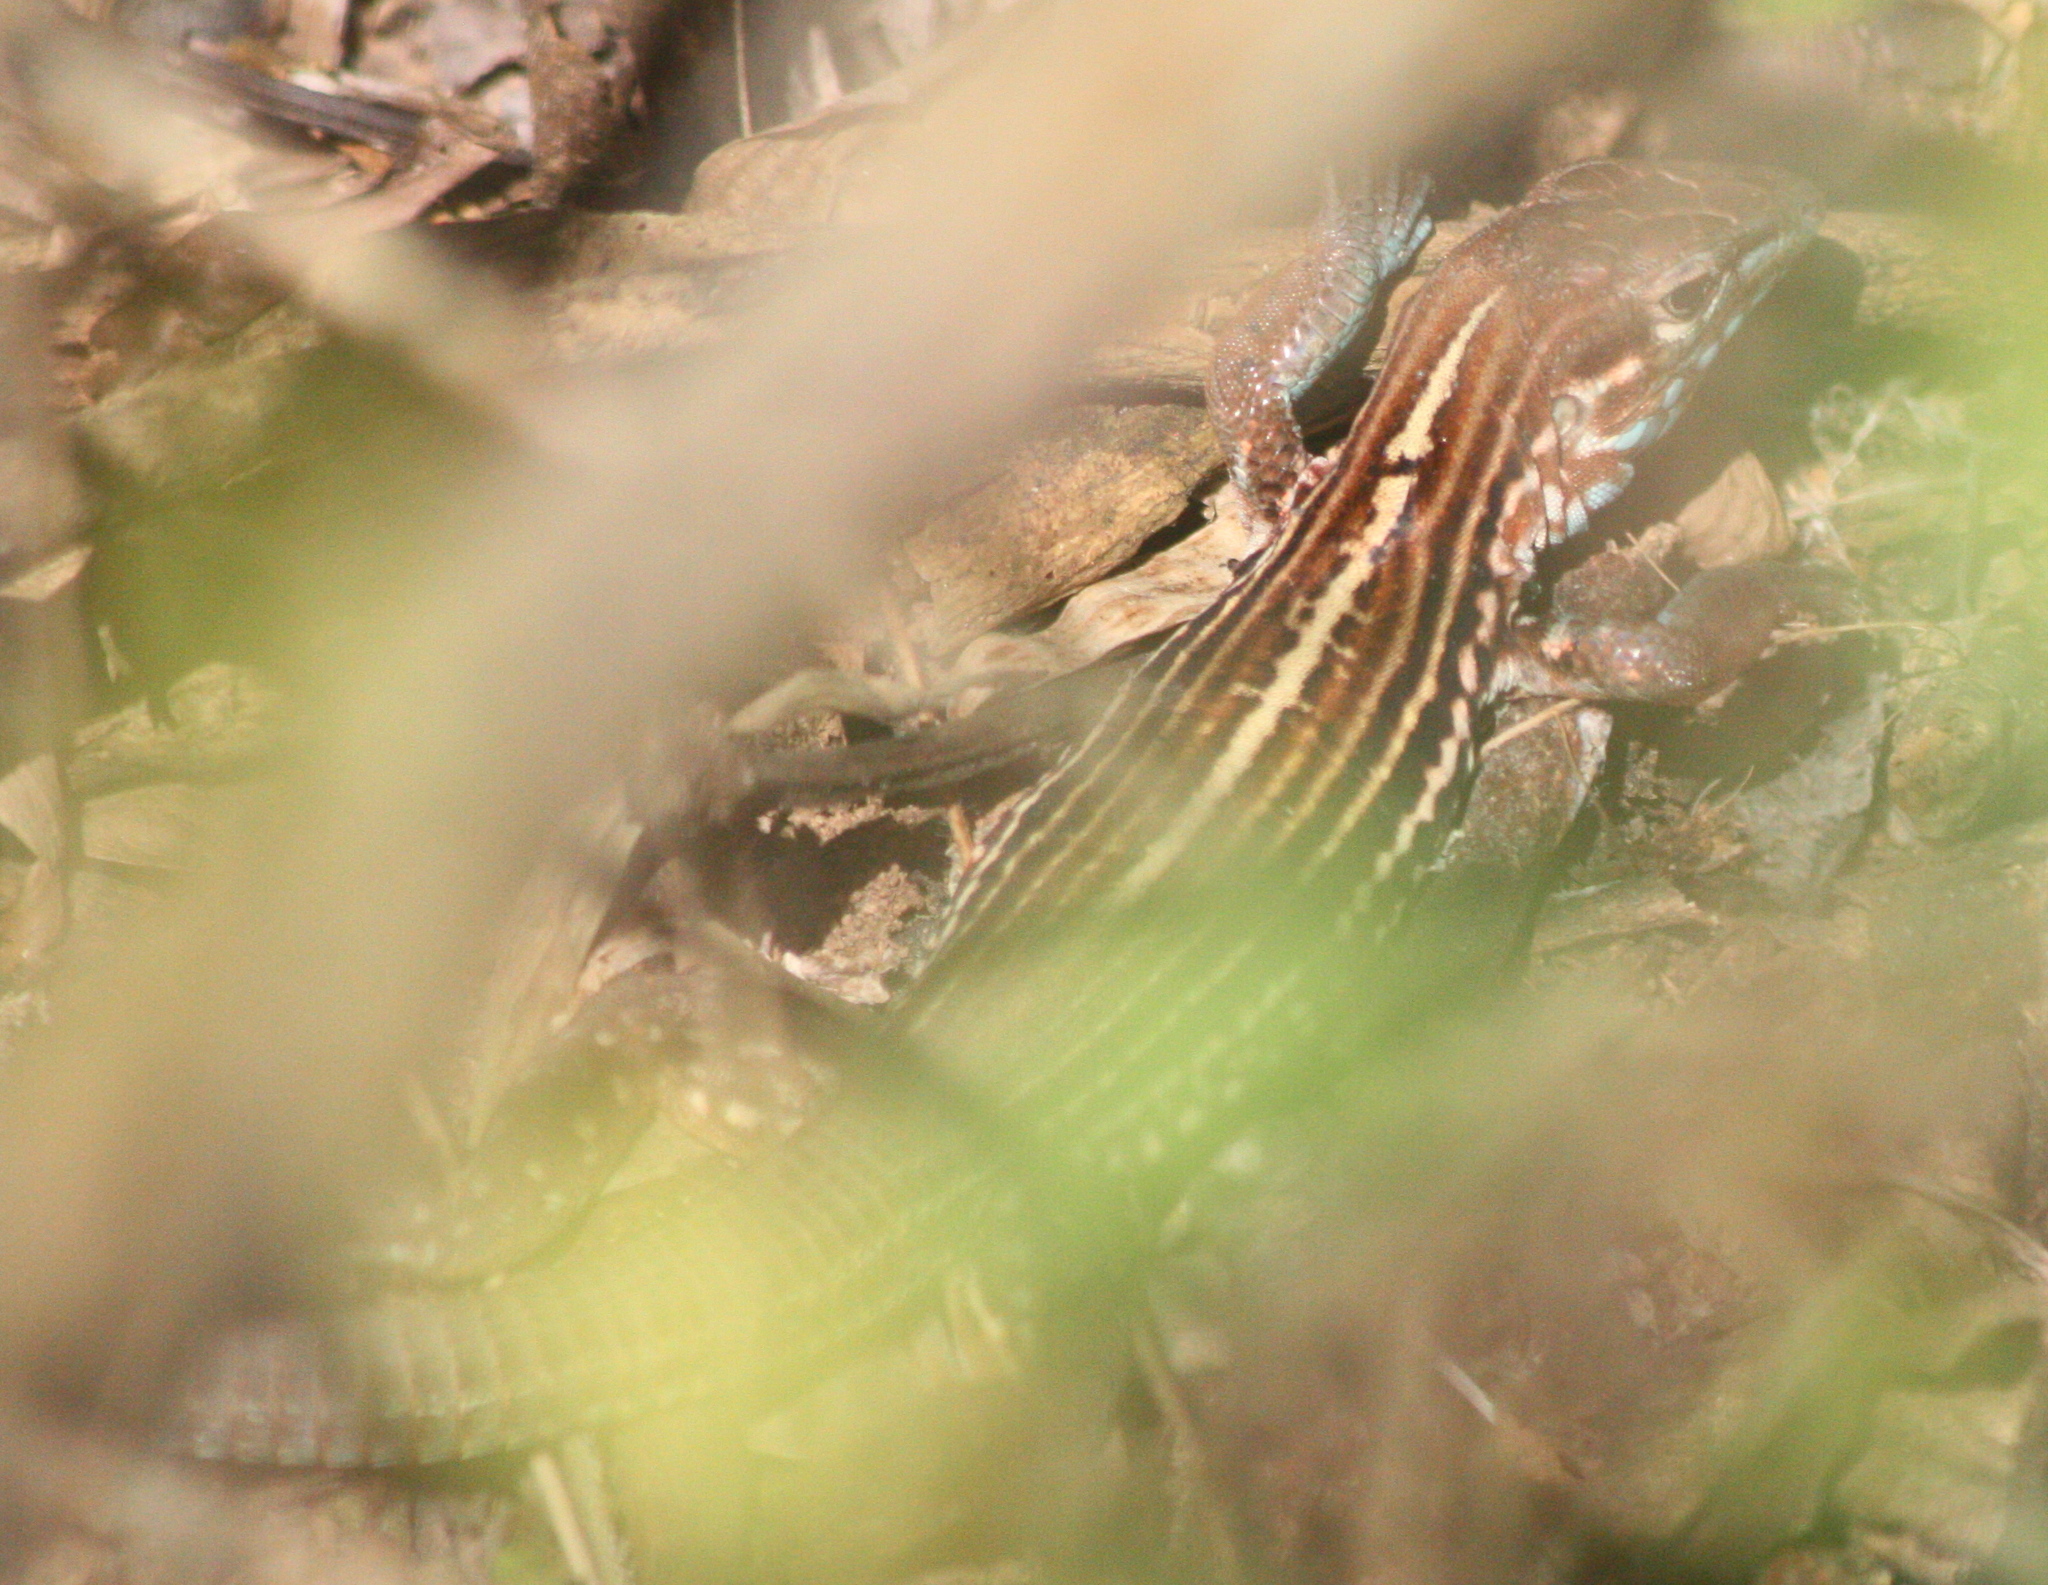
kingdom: Animalia
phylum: Chordata
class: Squamata
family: Teiidae
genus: Aspidoscelis
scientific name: Aspidoscelis lineattissimus
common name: Many-lined whiptail
